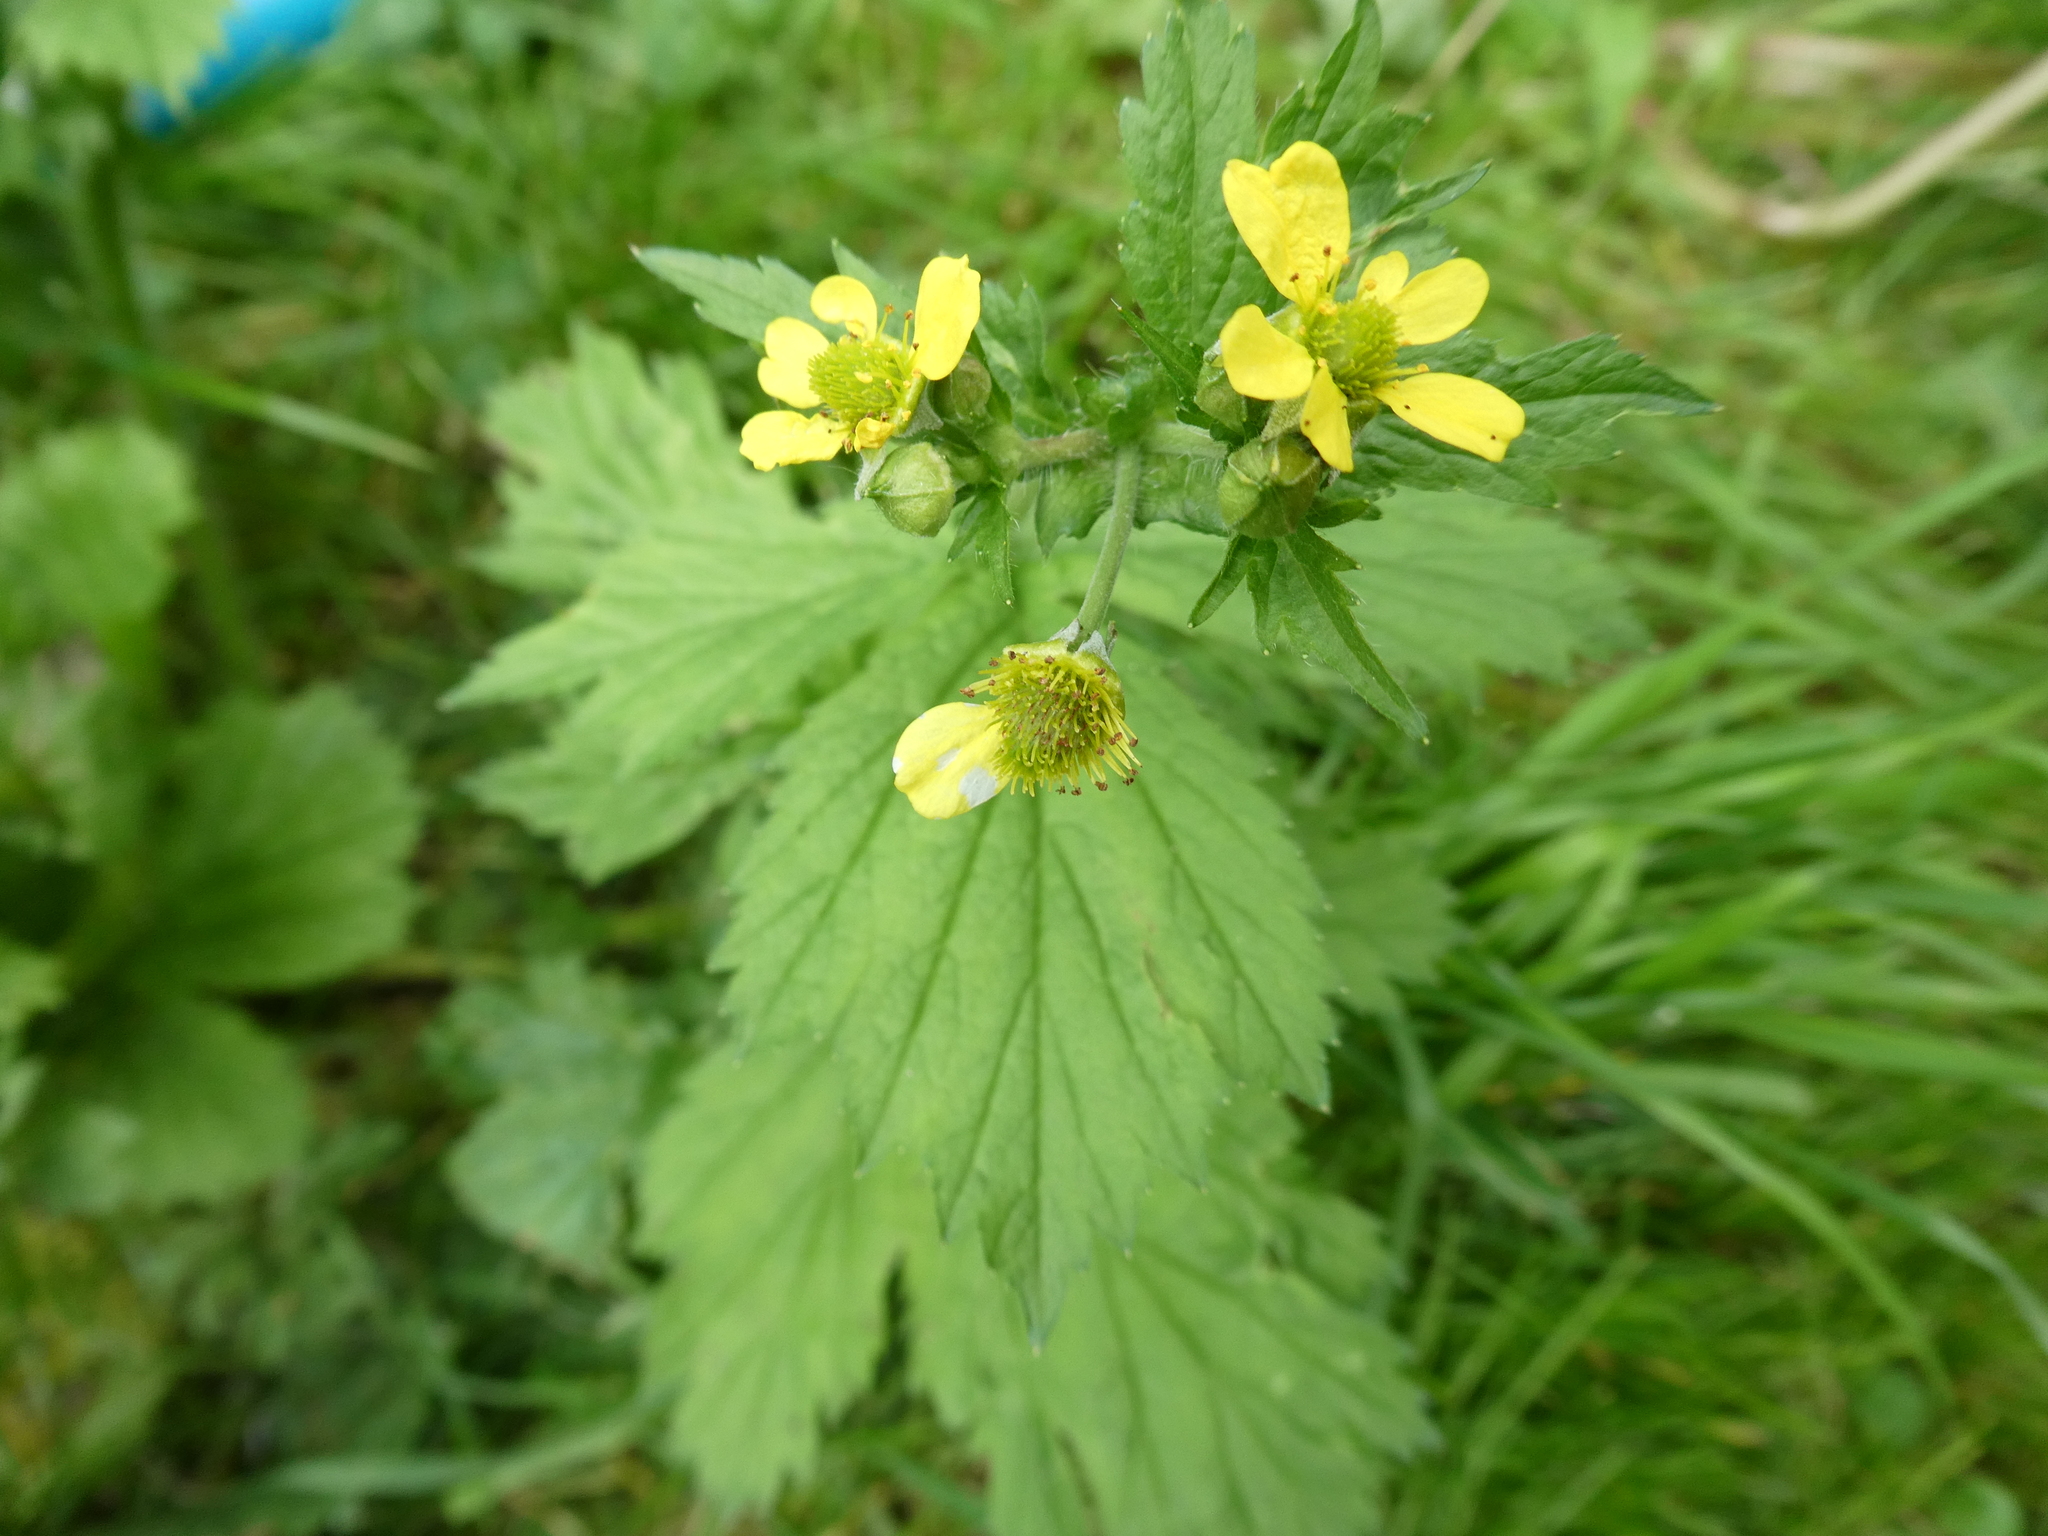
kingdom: Plantae
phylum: Tracheophyta
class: Magnoliopsida
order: Rosales
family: Rosaceae
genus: Geum
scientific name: Geum macrophyllum
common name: Large-leaved avens
